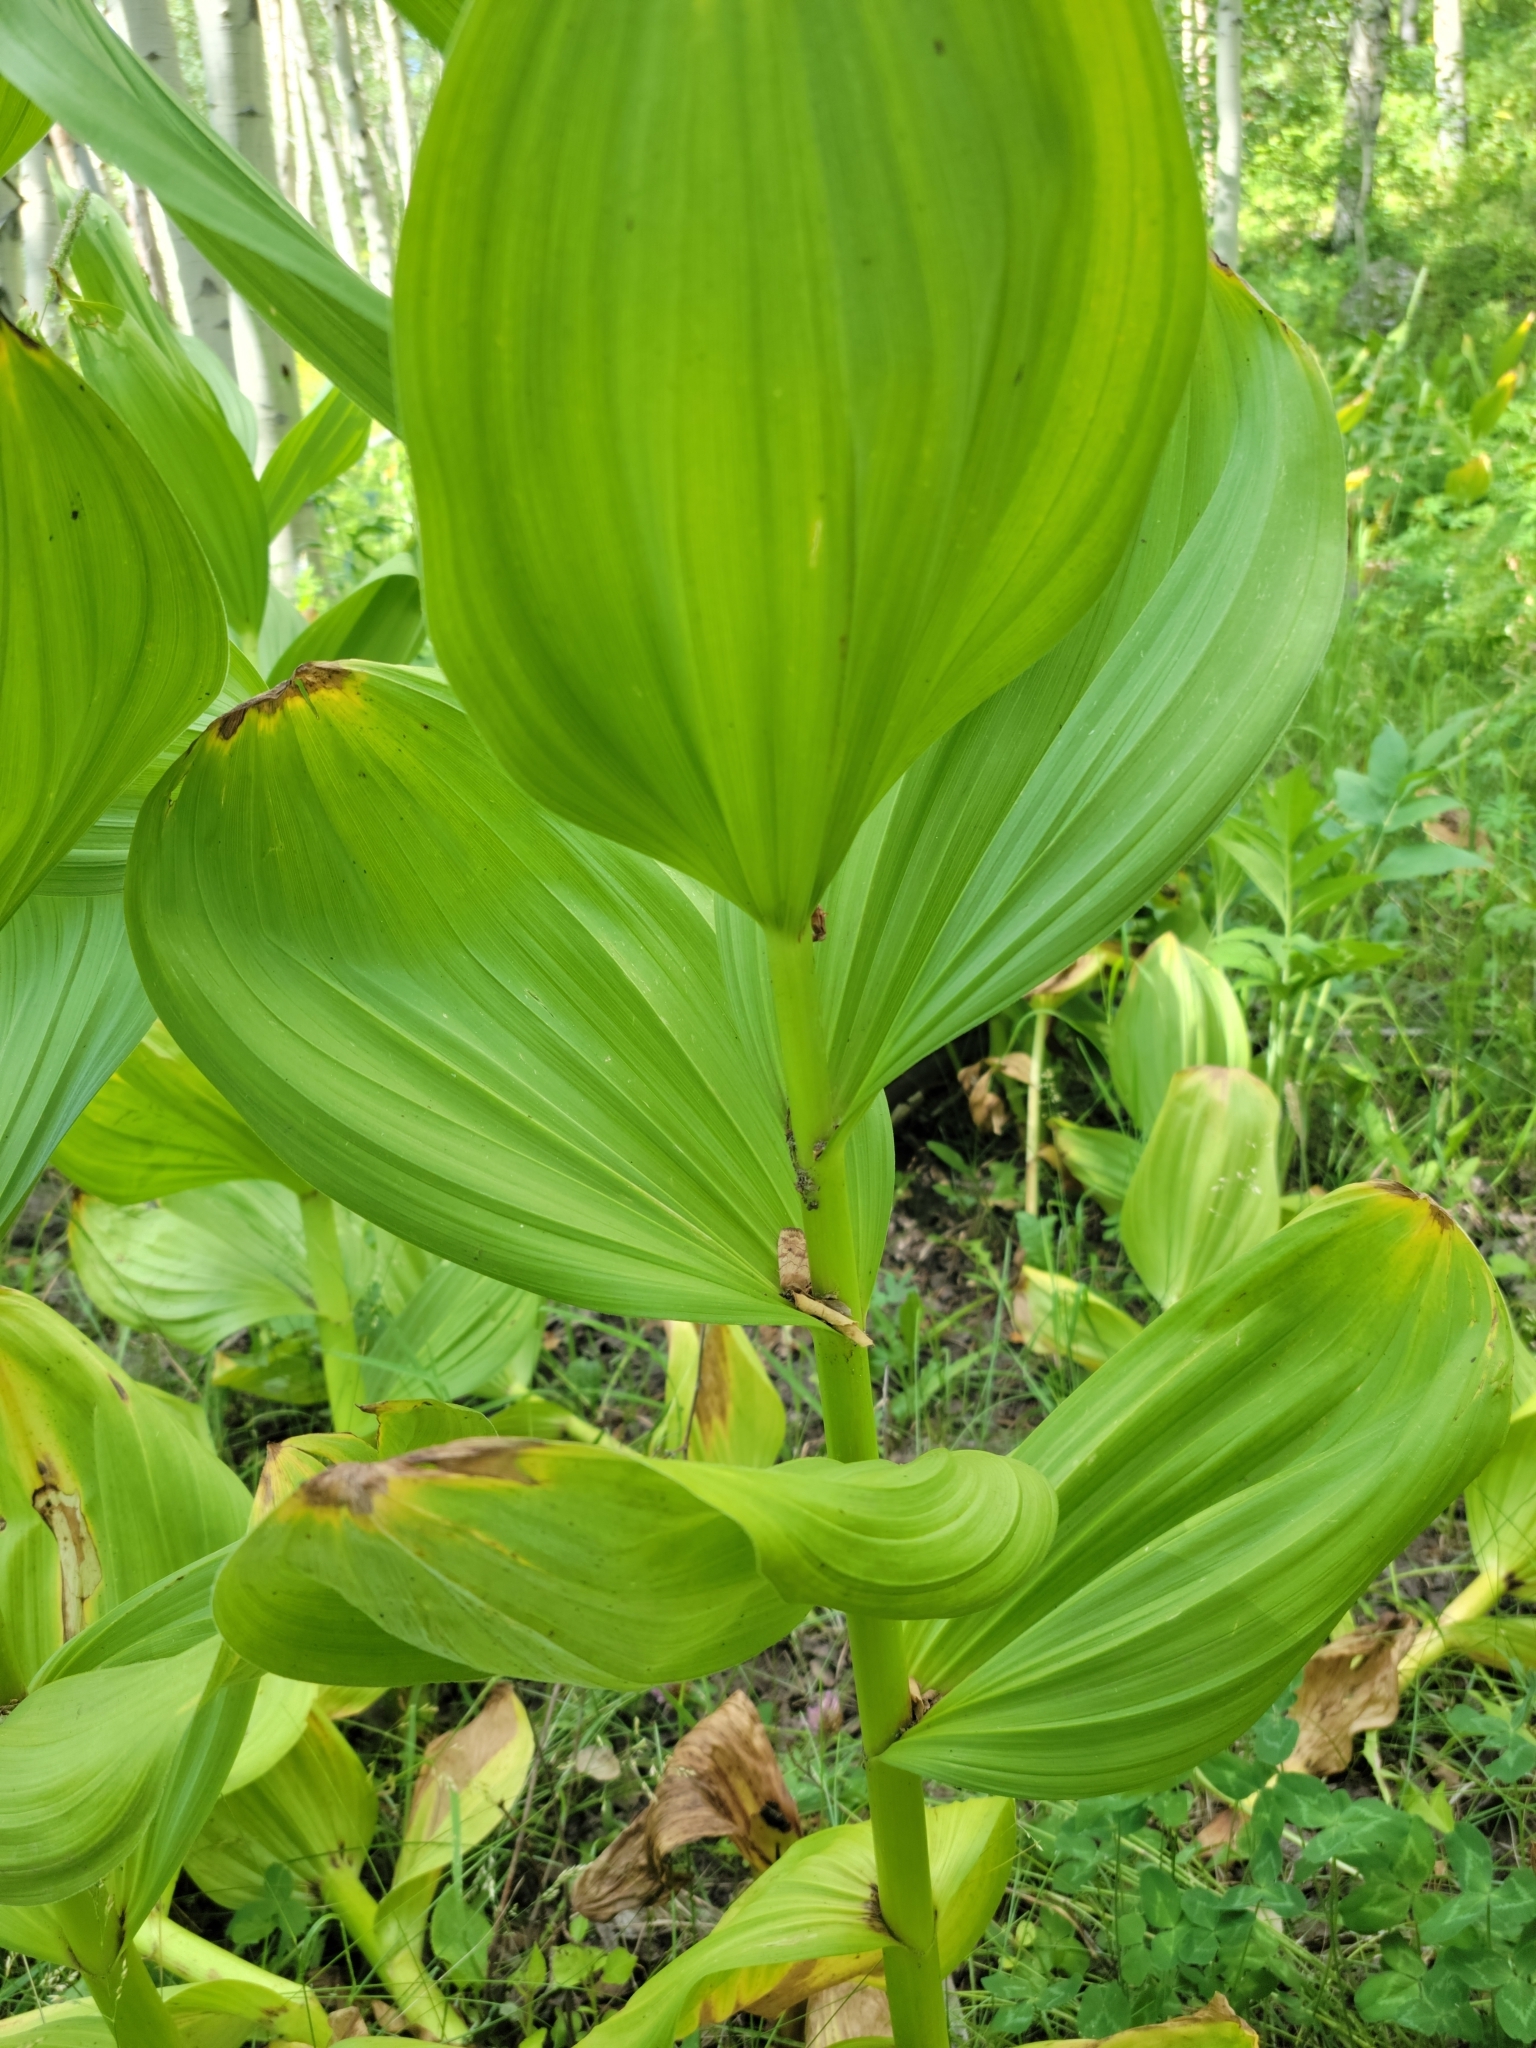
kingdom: Plantae
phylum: Tracheophyta
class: Liliopsida
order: Liliales
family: Melanthiaceae
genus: Veratrum
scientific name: Veratrum californicum
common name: California veratrum
